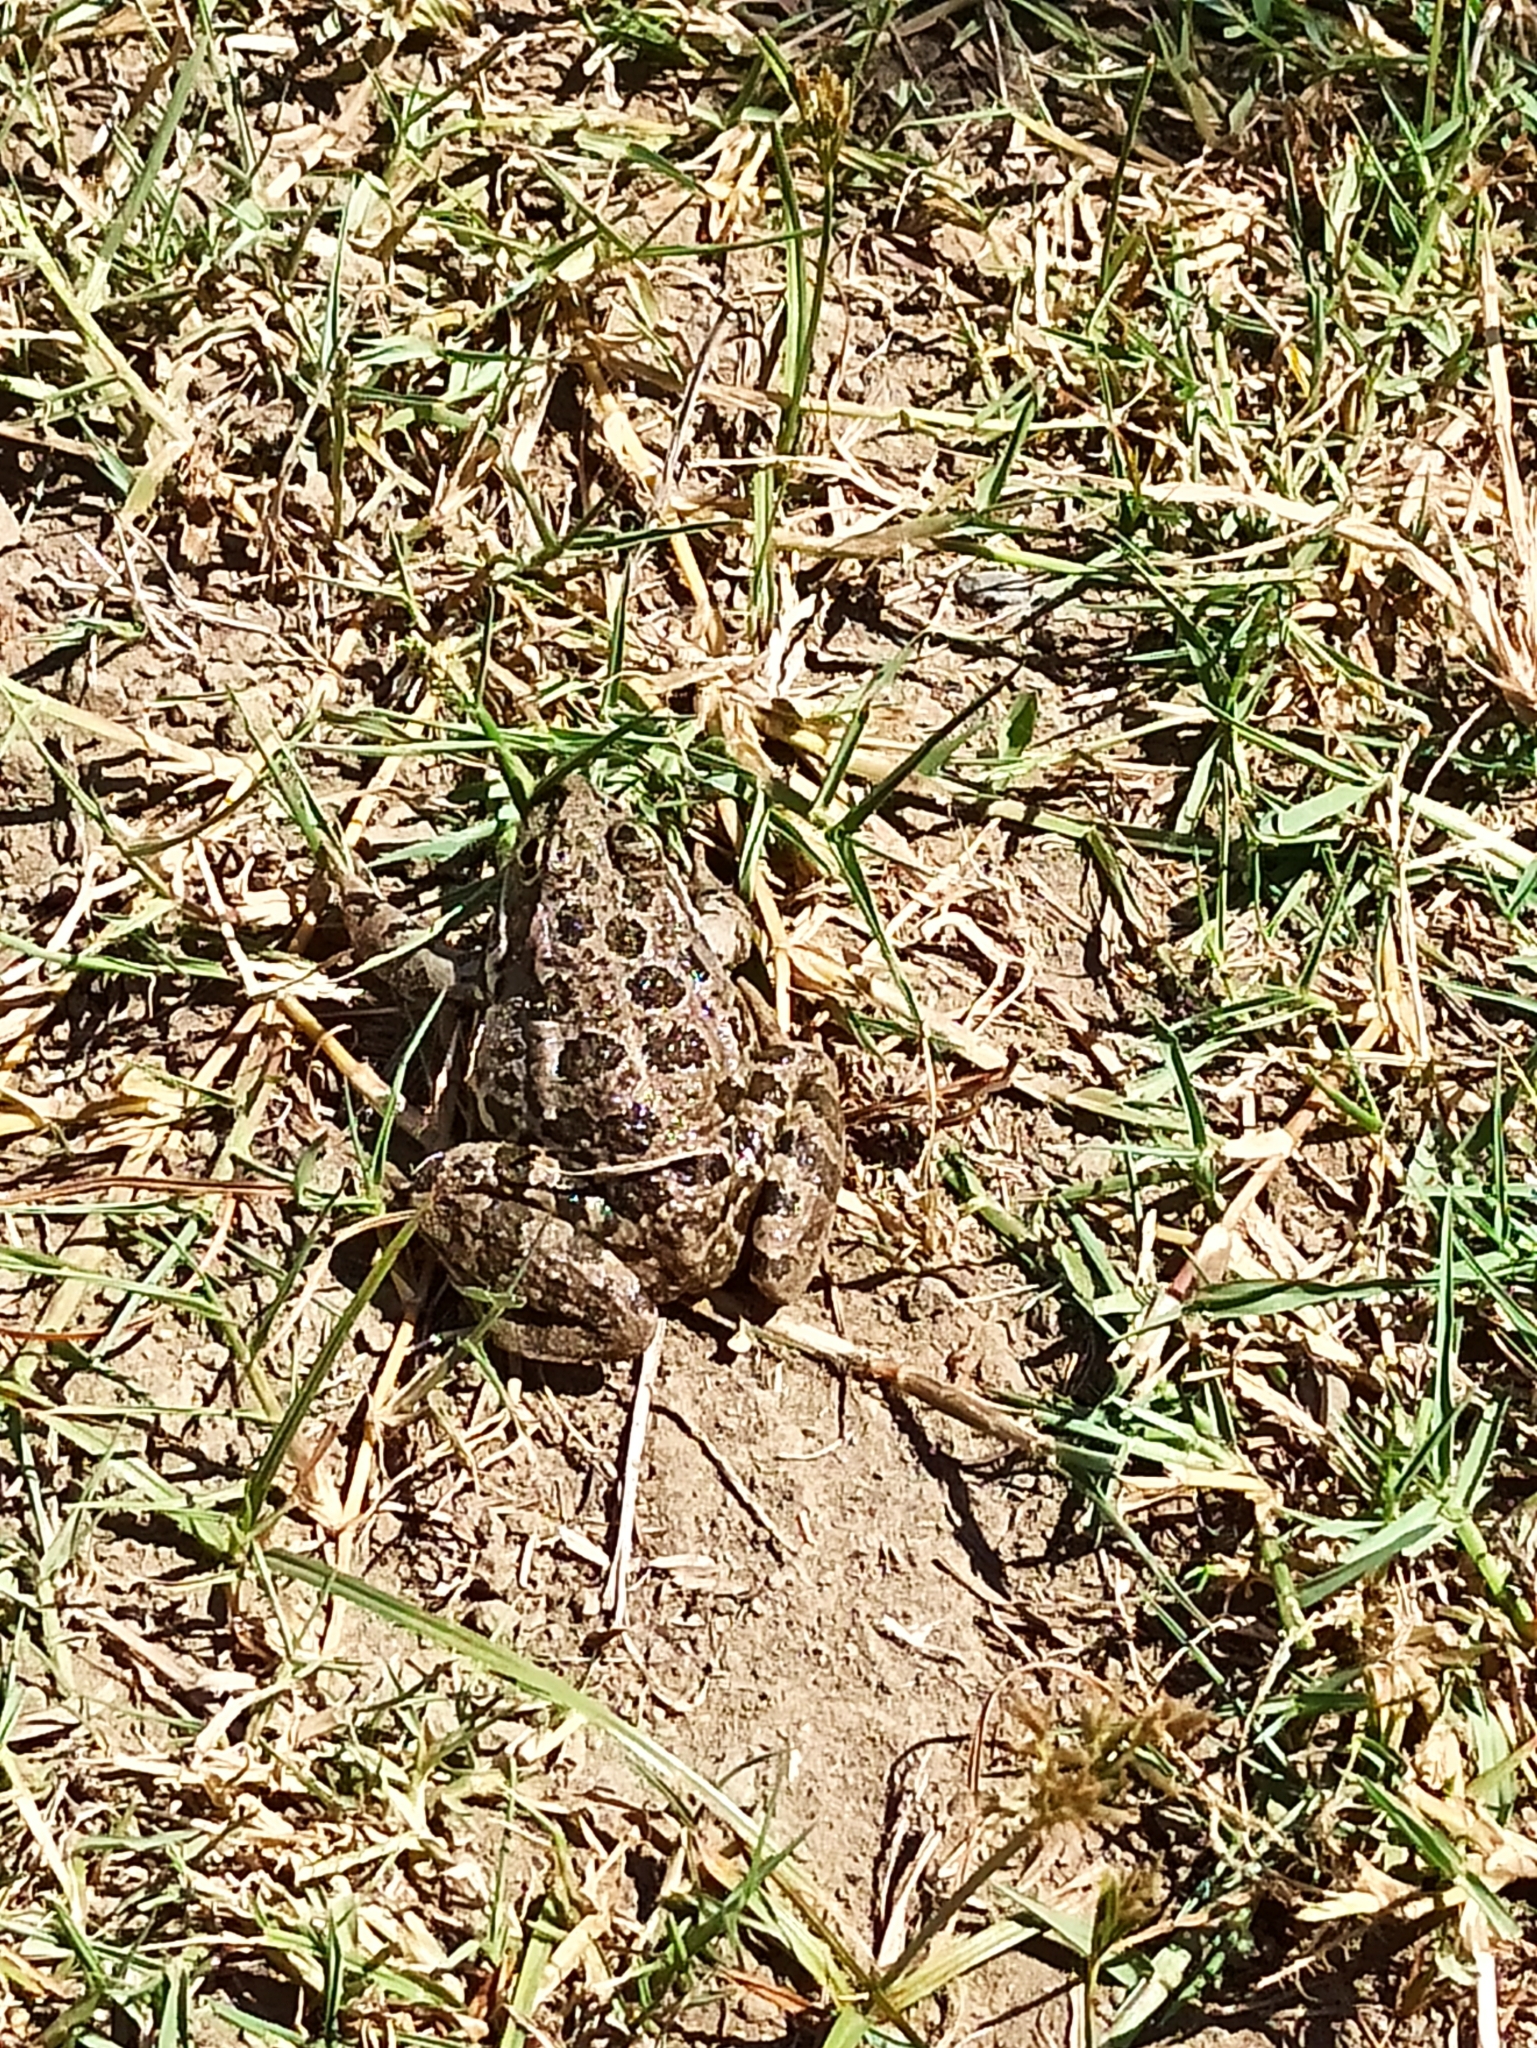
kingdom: Animalia
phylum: Chordata
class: Amphibia
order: Anura
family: Ranidae
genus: Pelophylax
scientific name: Pelophylax ridibundus
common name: Marsh frog
